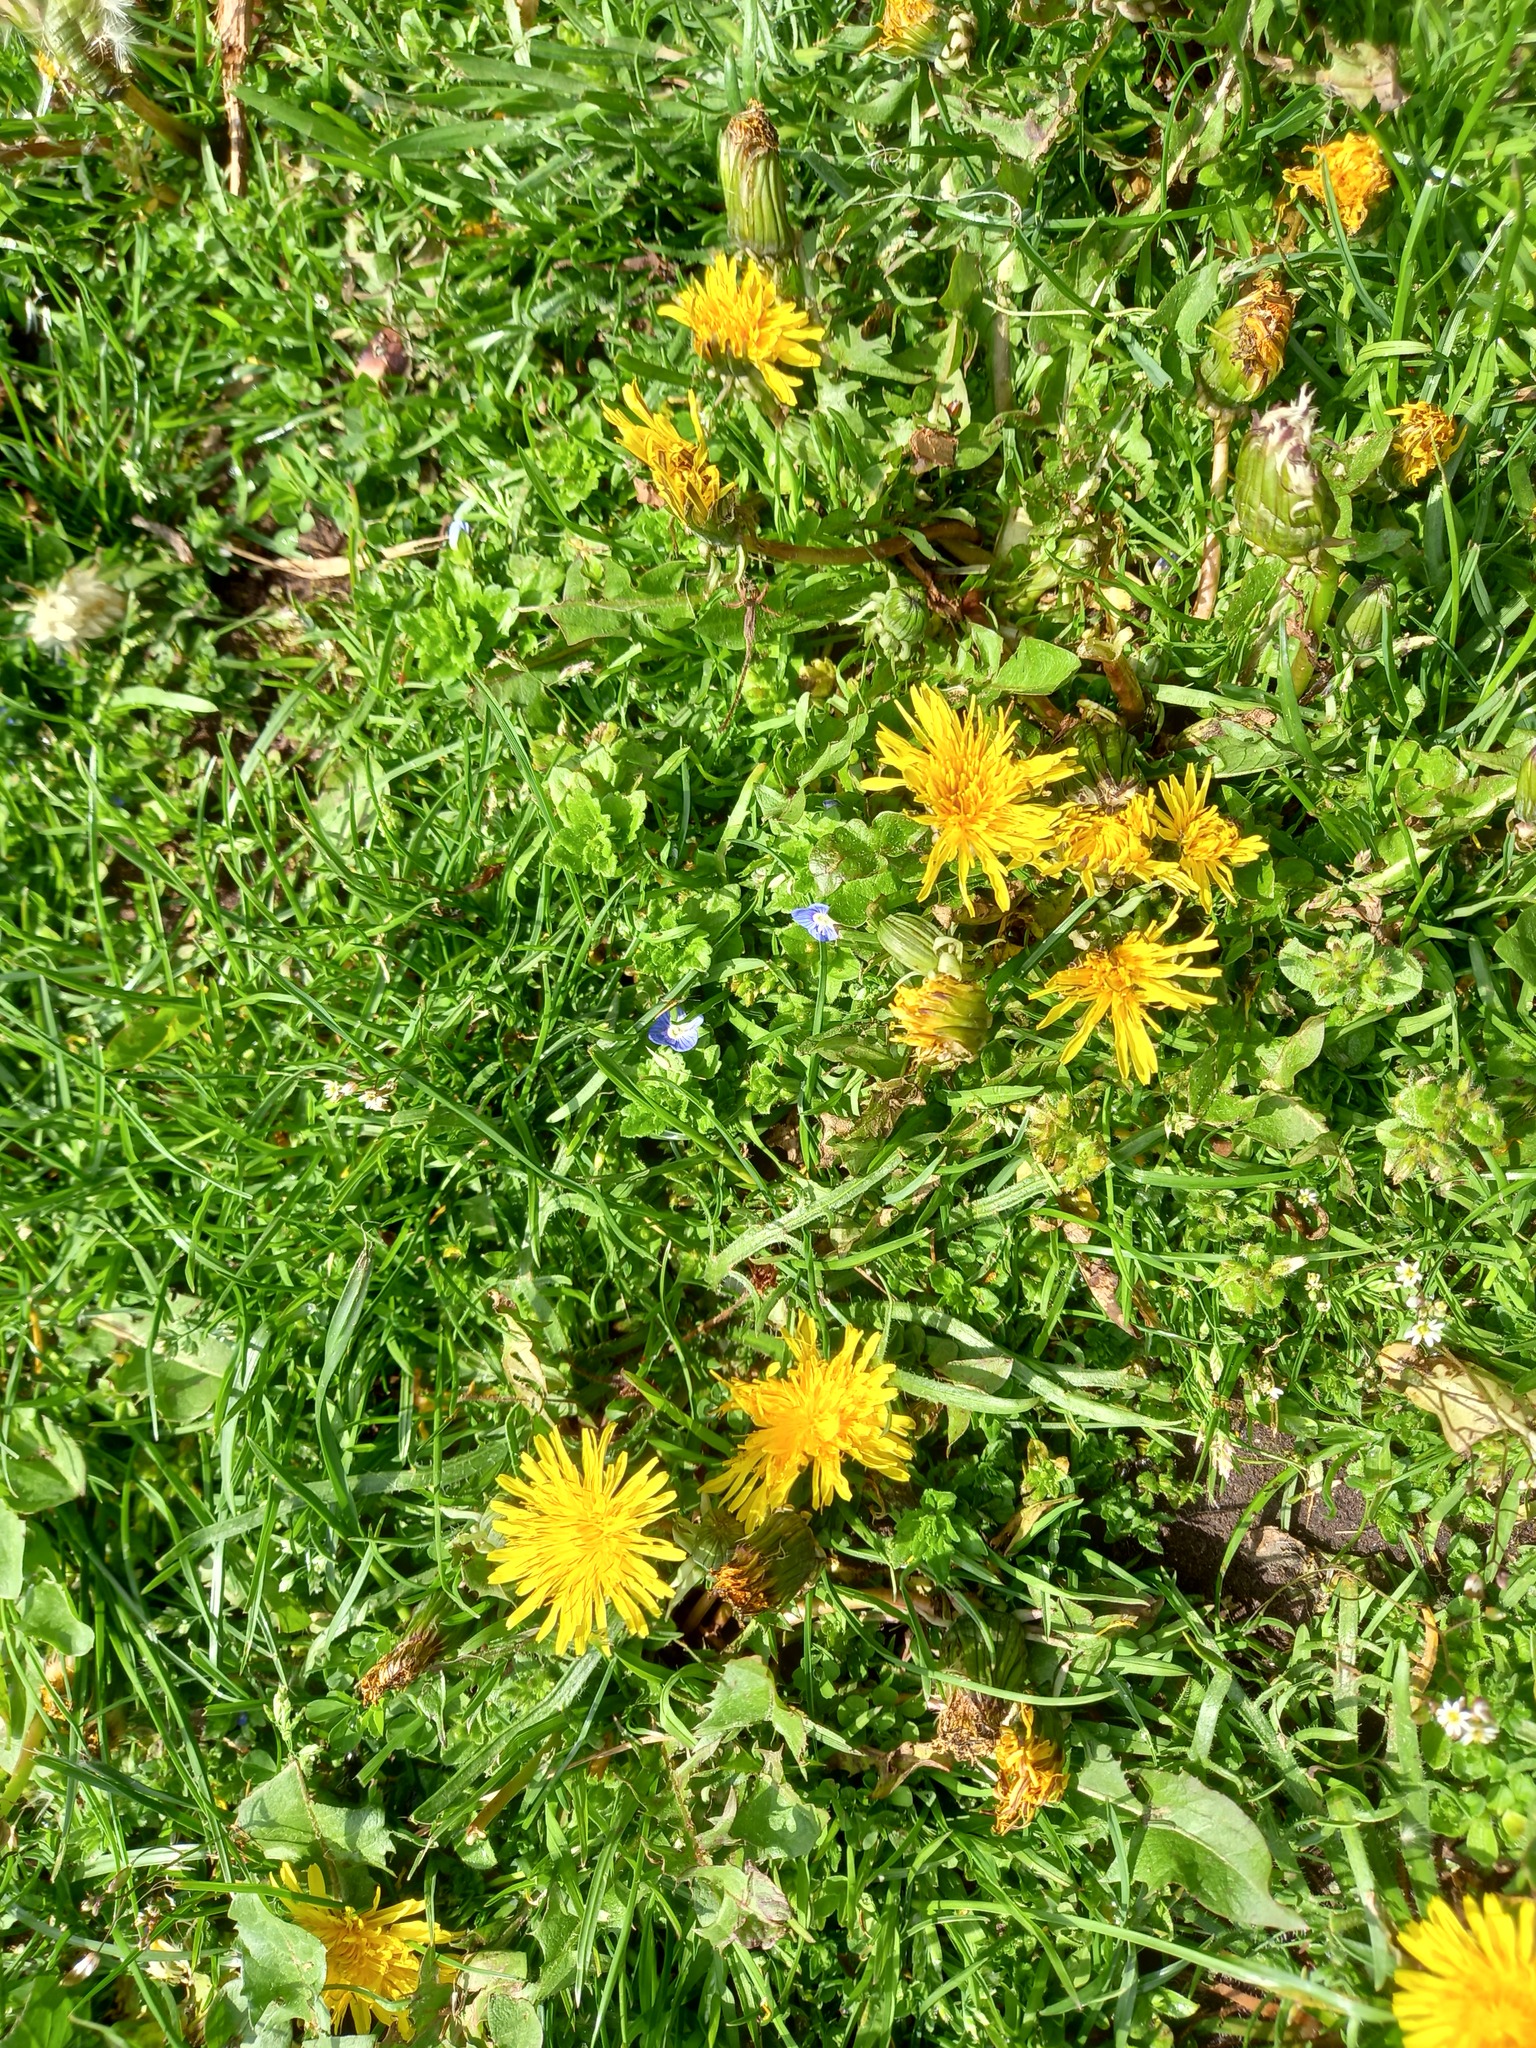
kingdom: Plantae
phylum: Tracheophyta
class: Magnoliopsida
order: Asterales
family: Asteraceae
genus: Taraxacum
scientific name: Taraxacum officinale
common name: Common dandelion
